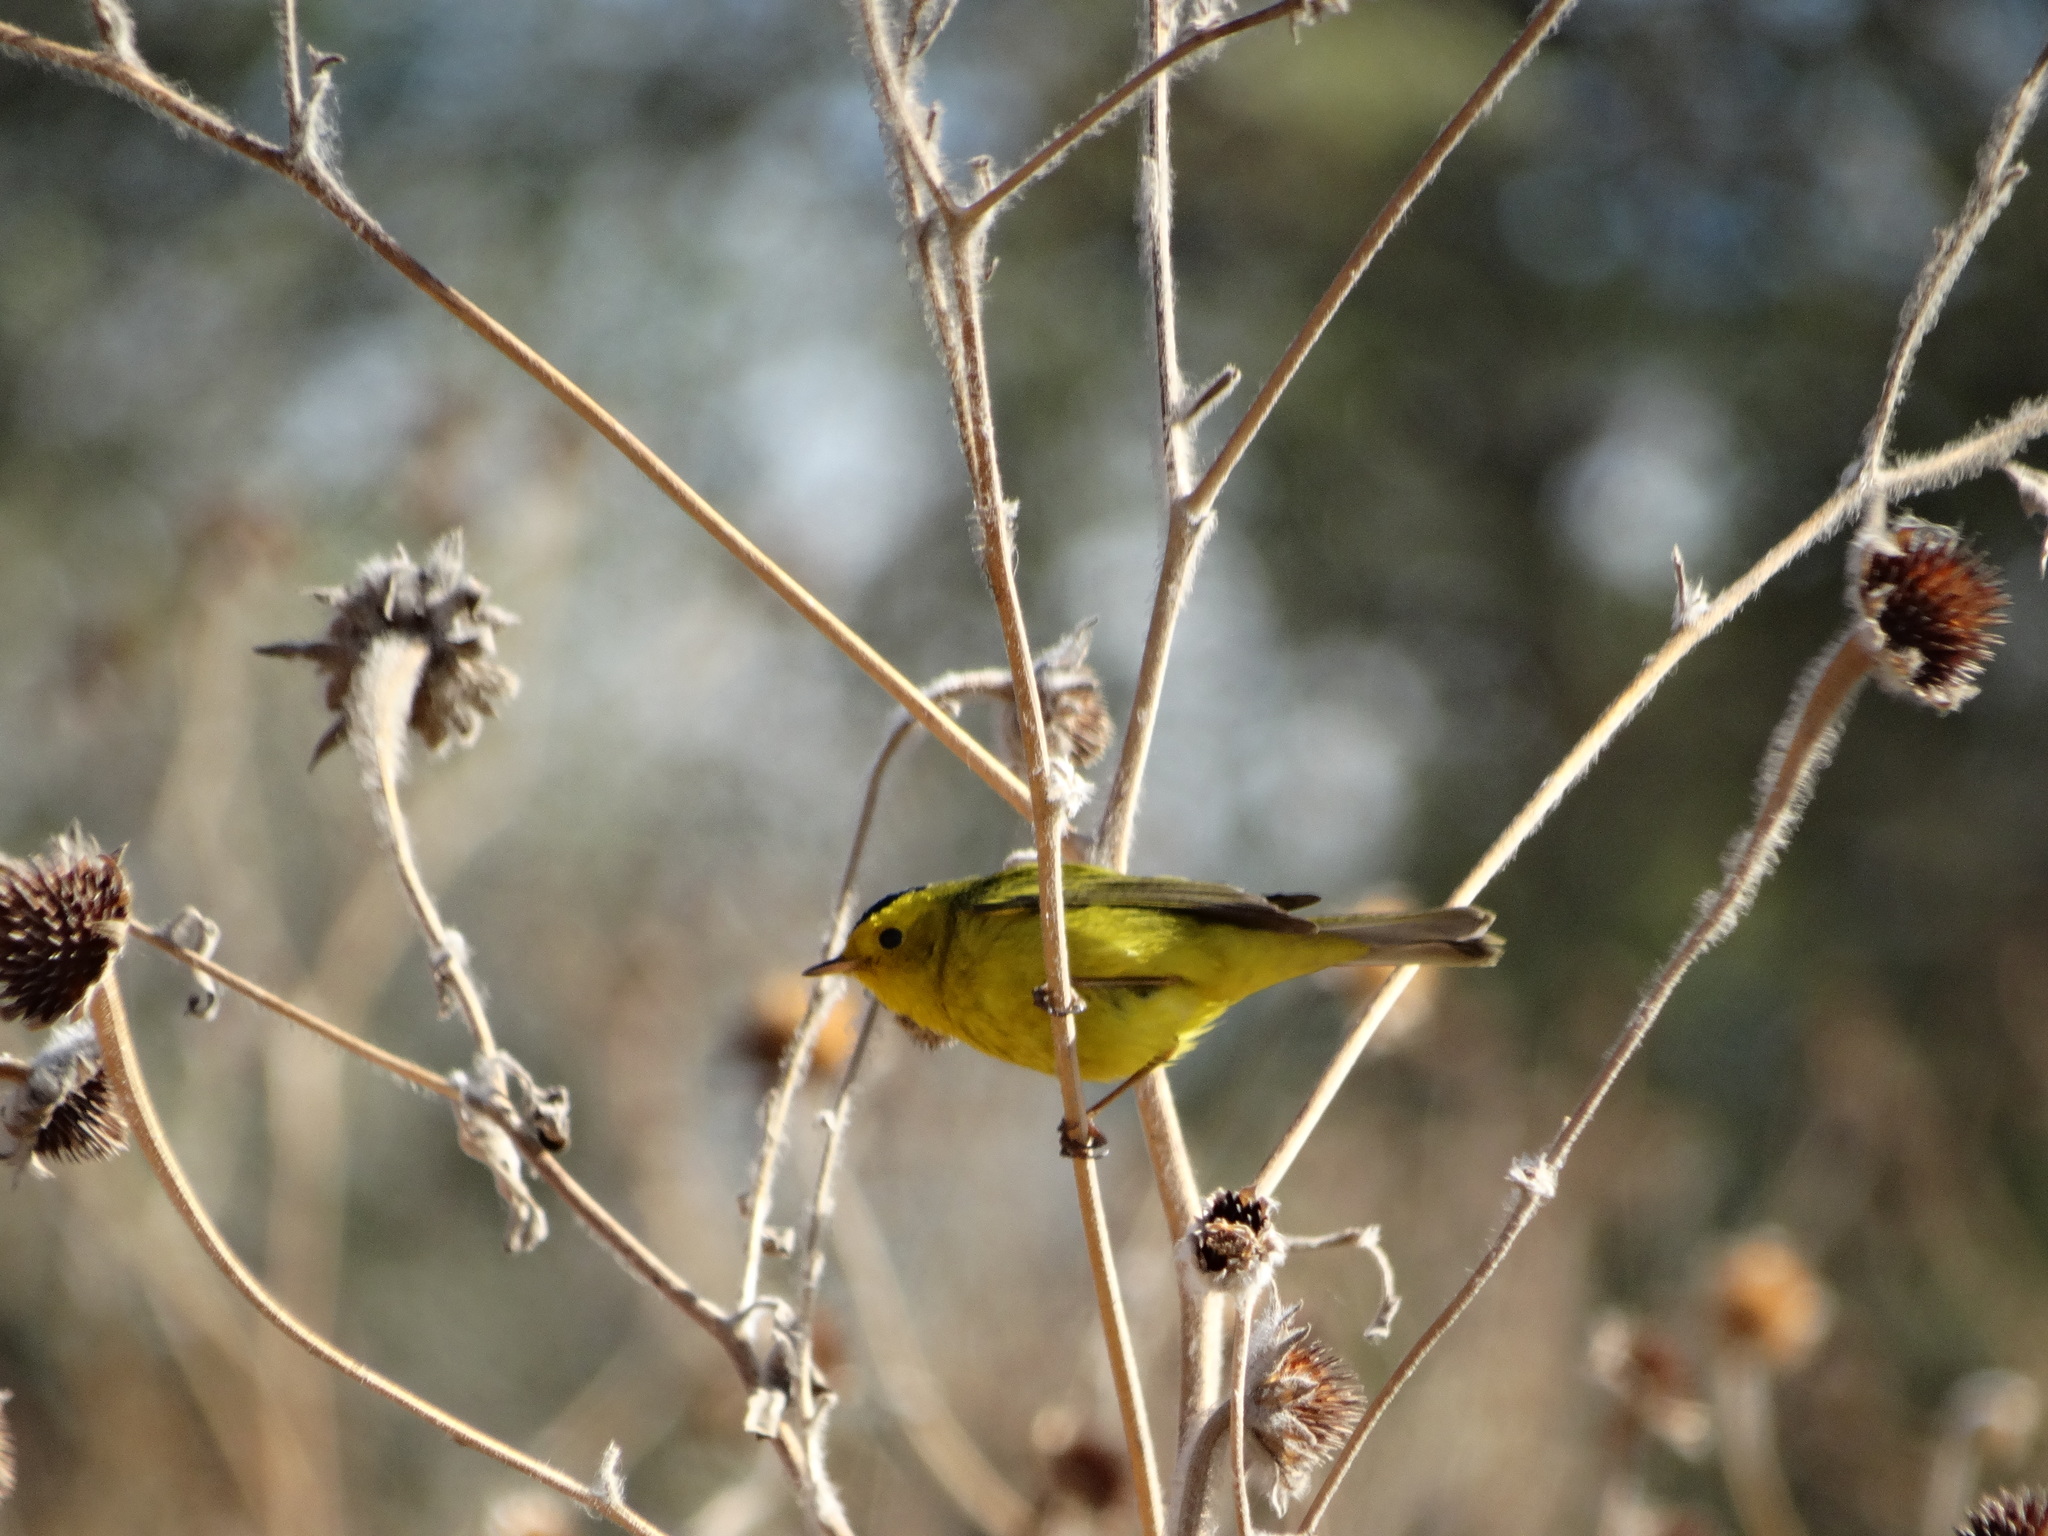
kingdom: Animalia
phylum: Chordata
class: Aves
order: Passeriformes
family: Parulidae
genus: Cardellina
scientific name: Cardellina pusilla
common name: Wilson's warbler
